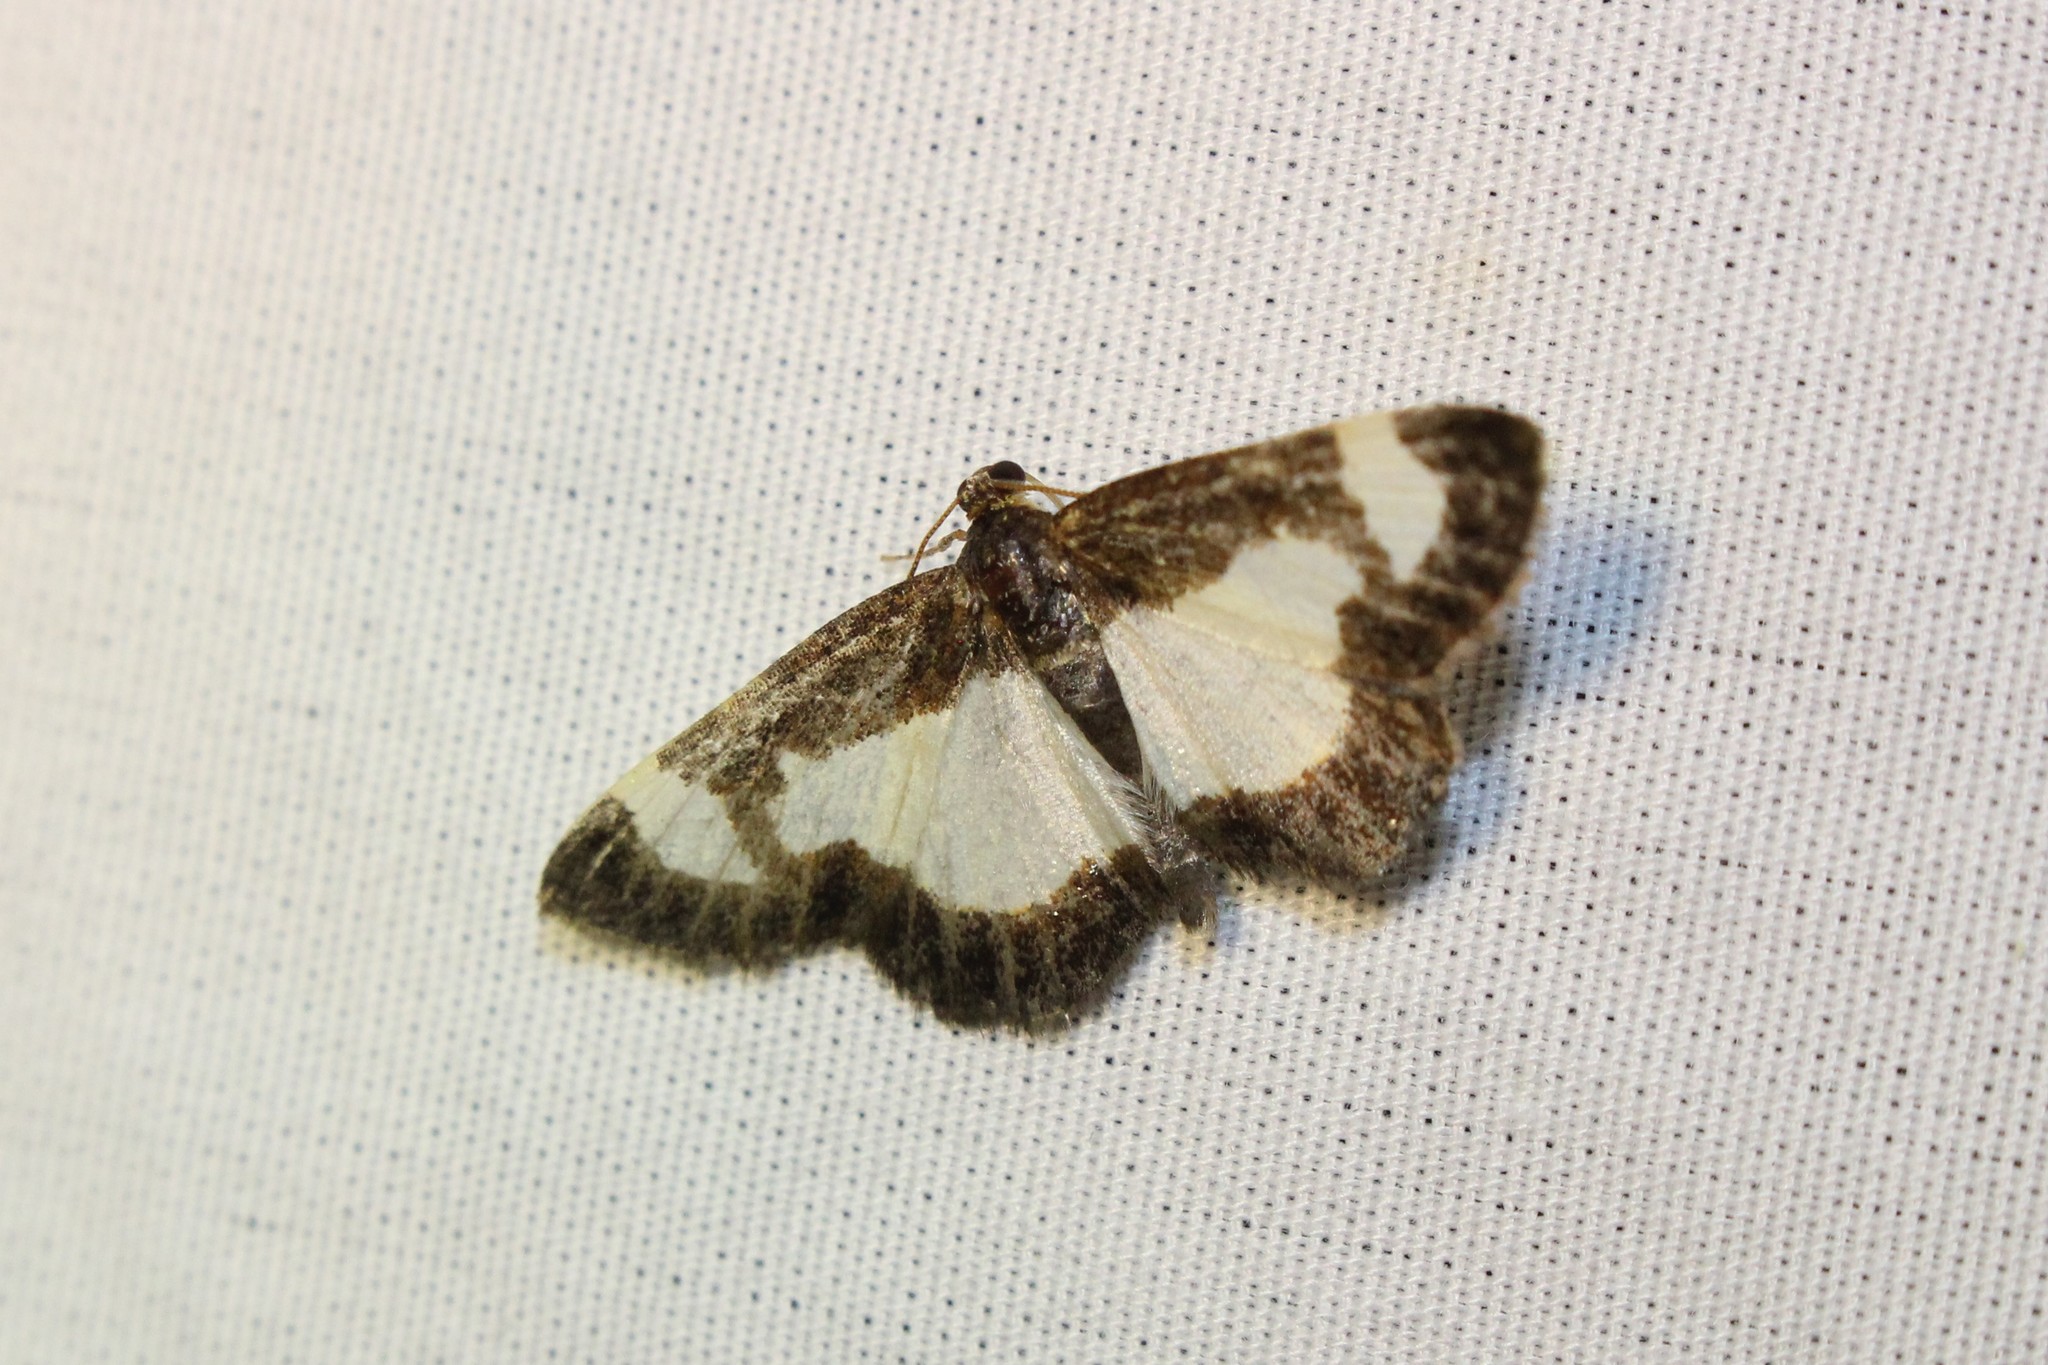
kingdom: Animalia
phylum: Arthropoda
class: Insecta
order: Lepidoptera
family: Geometridae
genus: Heliomata
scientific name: Heliomata cycladata
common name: Common spring moth
